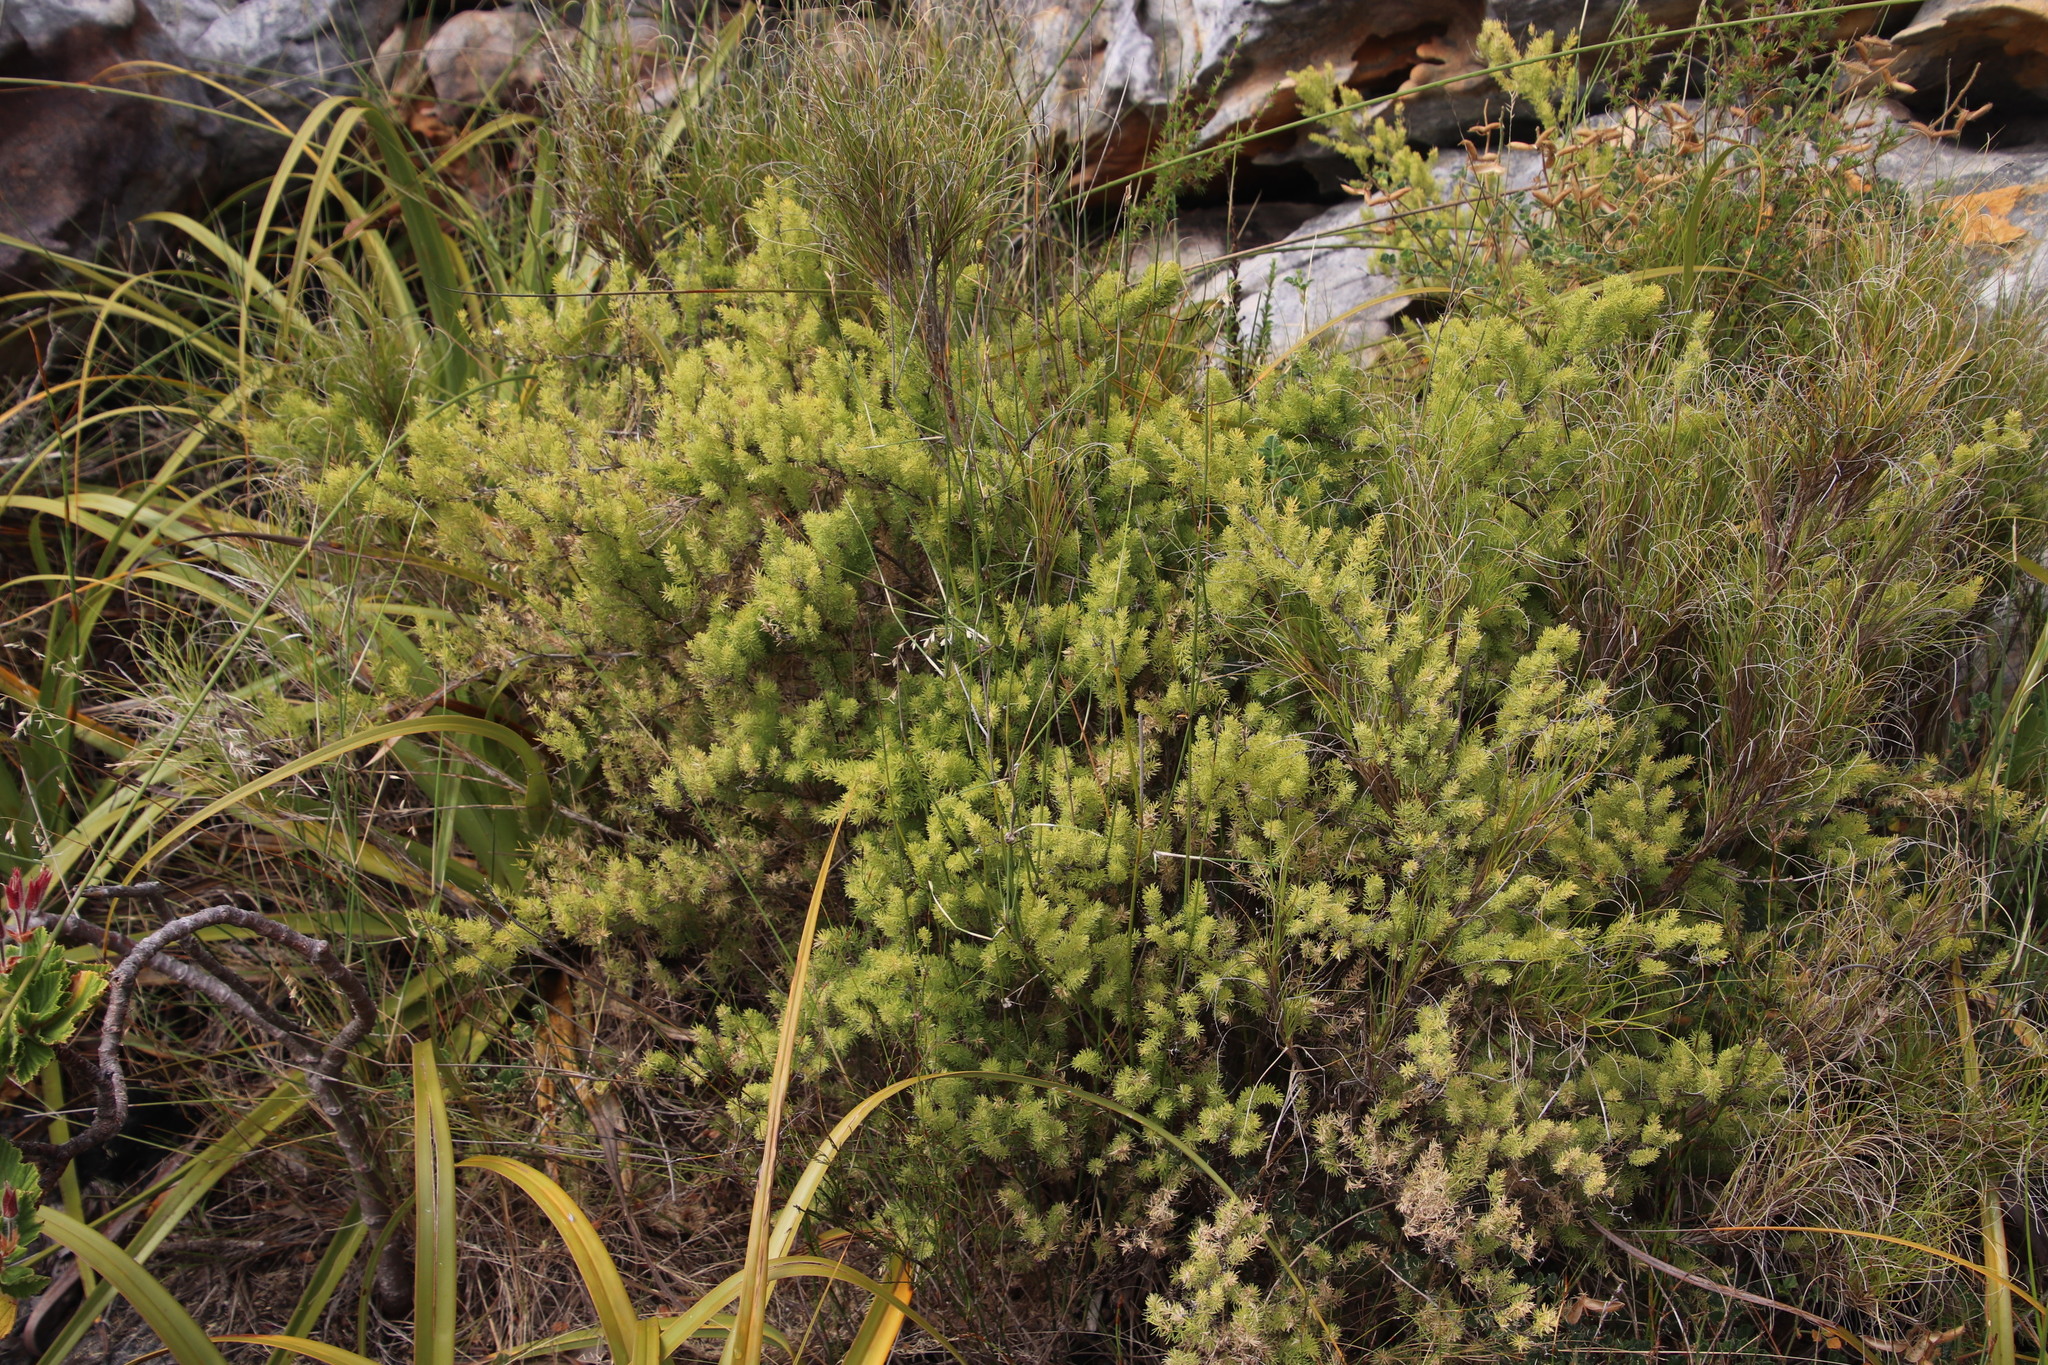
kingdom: Plantae
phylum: Tracheophyta
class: Liliopsida
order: Asparagales
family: Asparagaceae
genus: Asparagus
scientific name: Asparagus rubicundus
